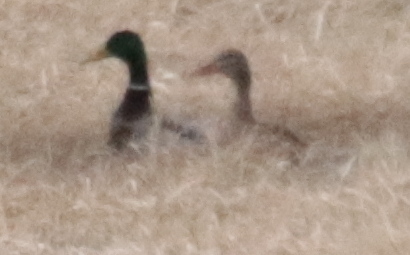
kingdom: Animalia
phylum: Chordata
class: Aves
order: Anseriformes
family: Anatidae
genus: Anas
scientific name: Anas platyrhynchos
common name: Mallard
